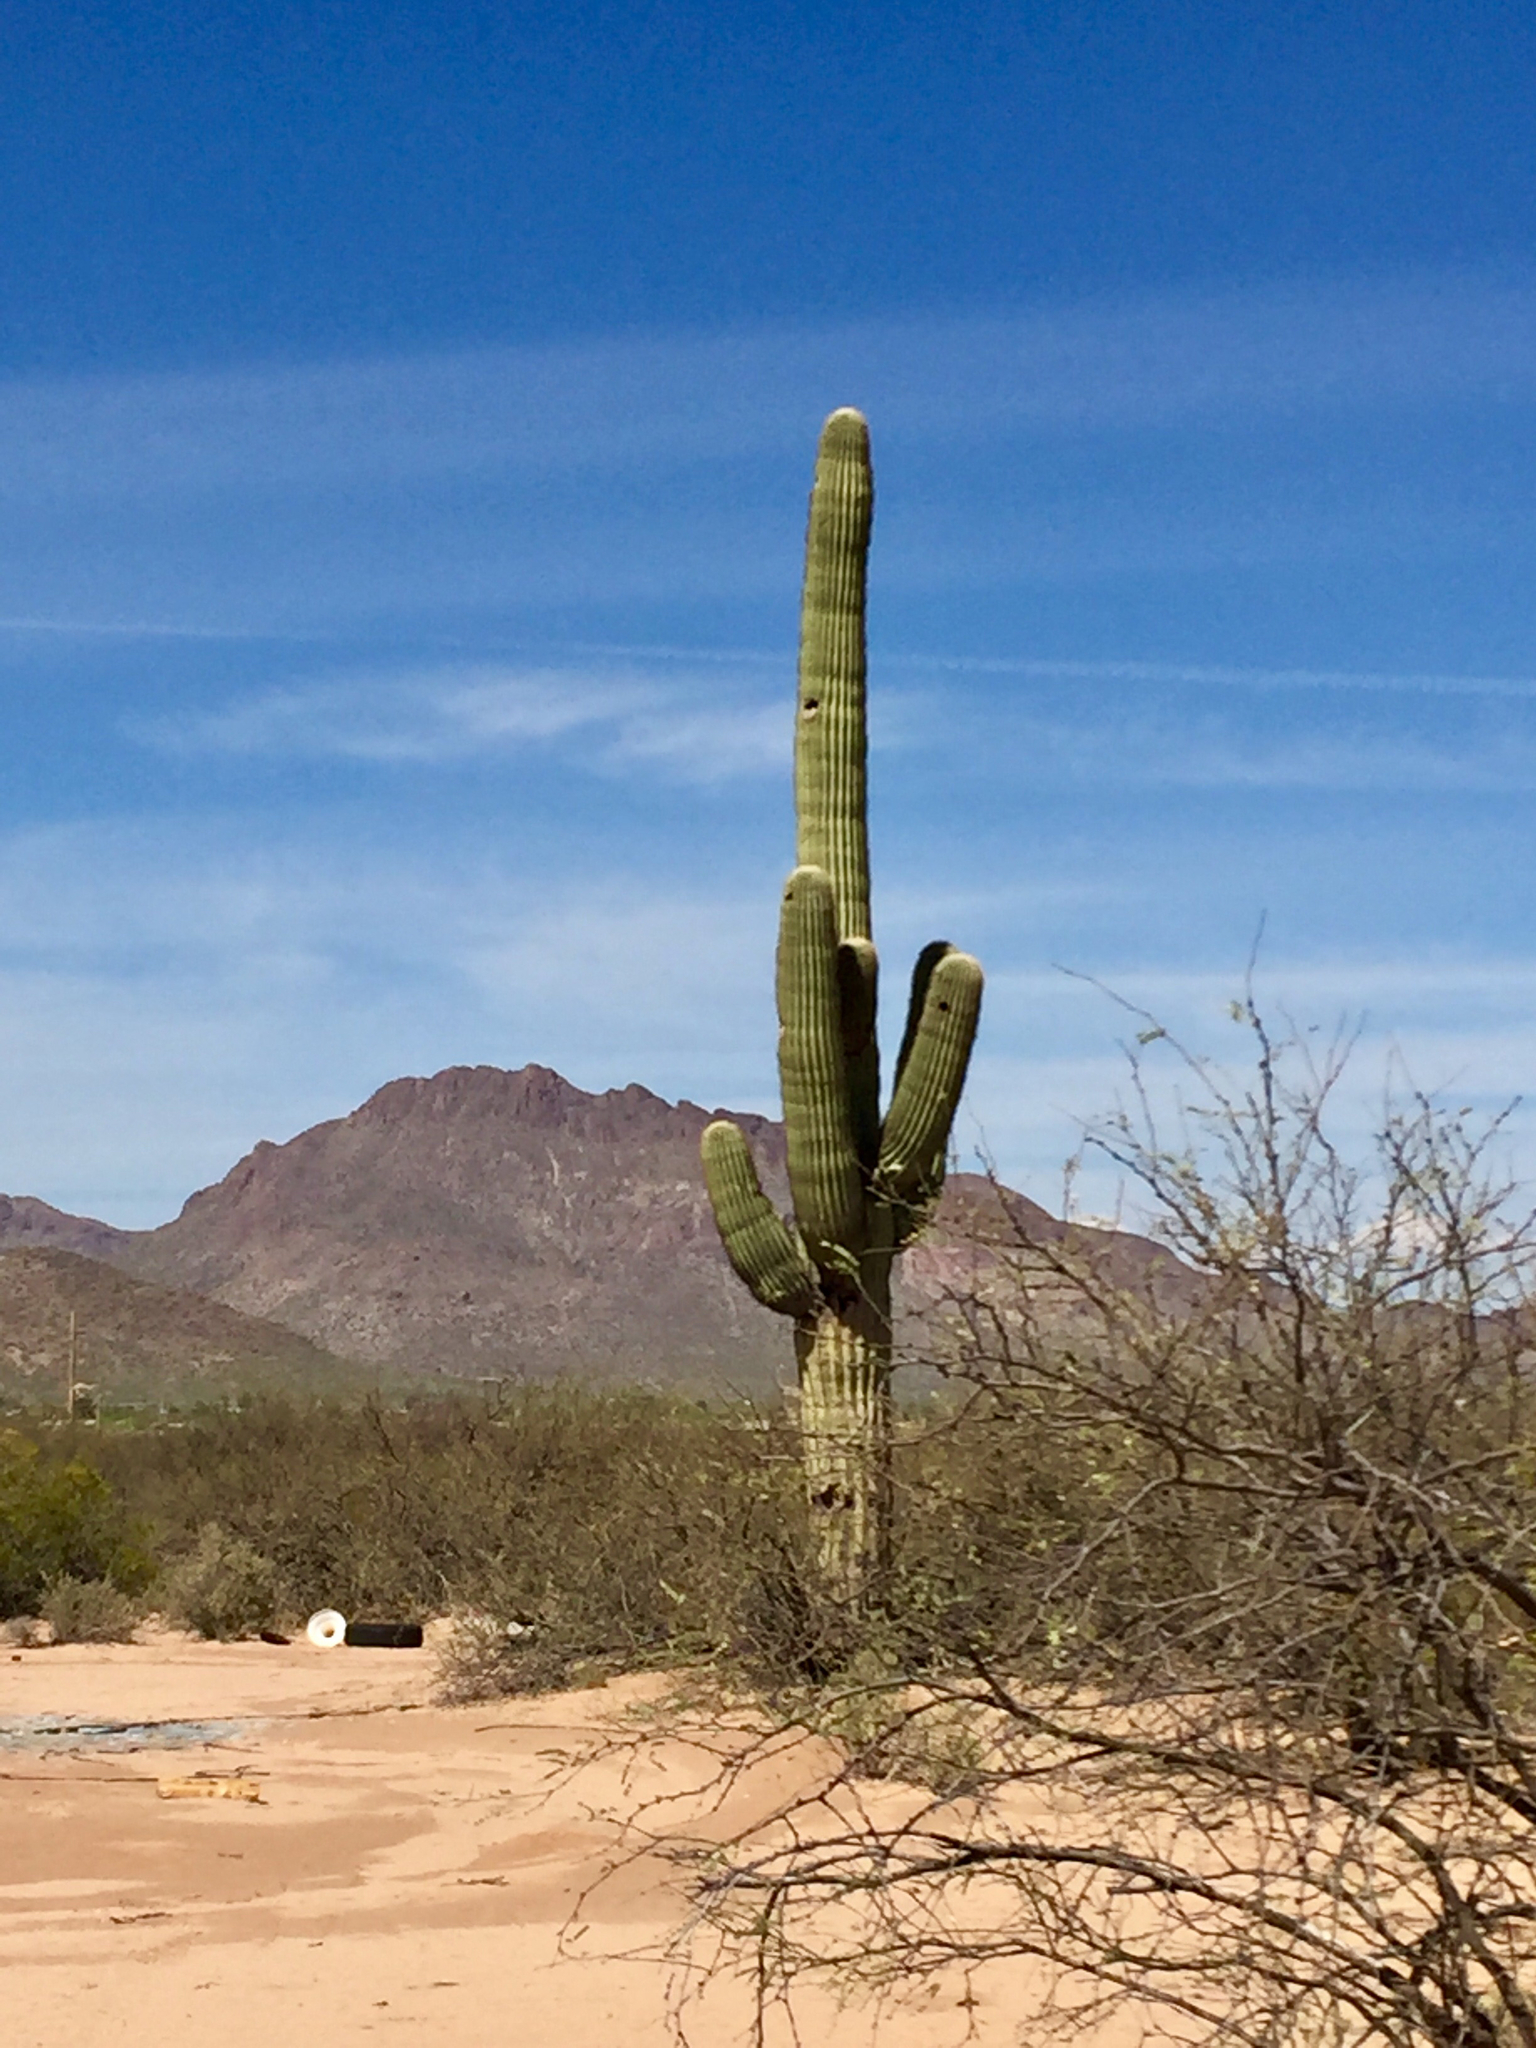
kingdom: Plantae
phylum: Tracheophyta
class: Magnoliopsida
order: Caryophyllales
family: Cactaceae
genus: Carnegiea
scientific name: Carnegiea gigantea
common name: Saguaro
